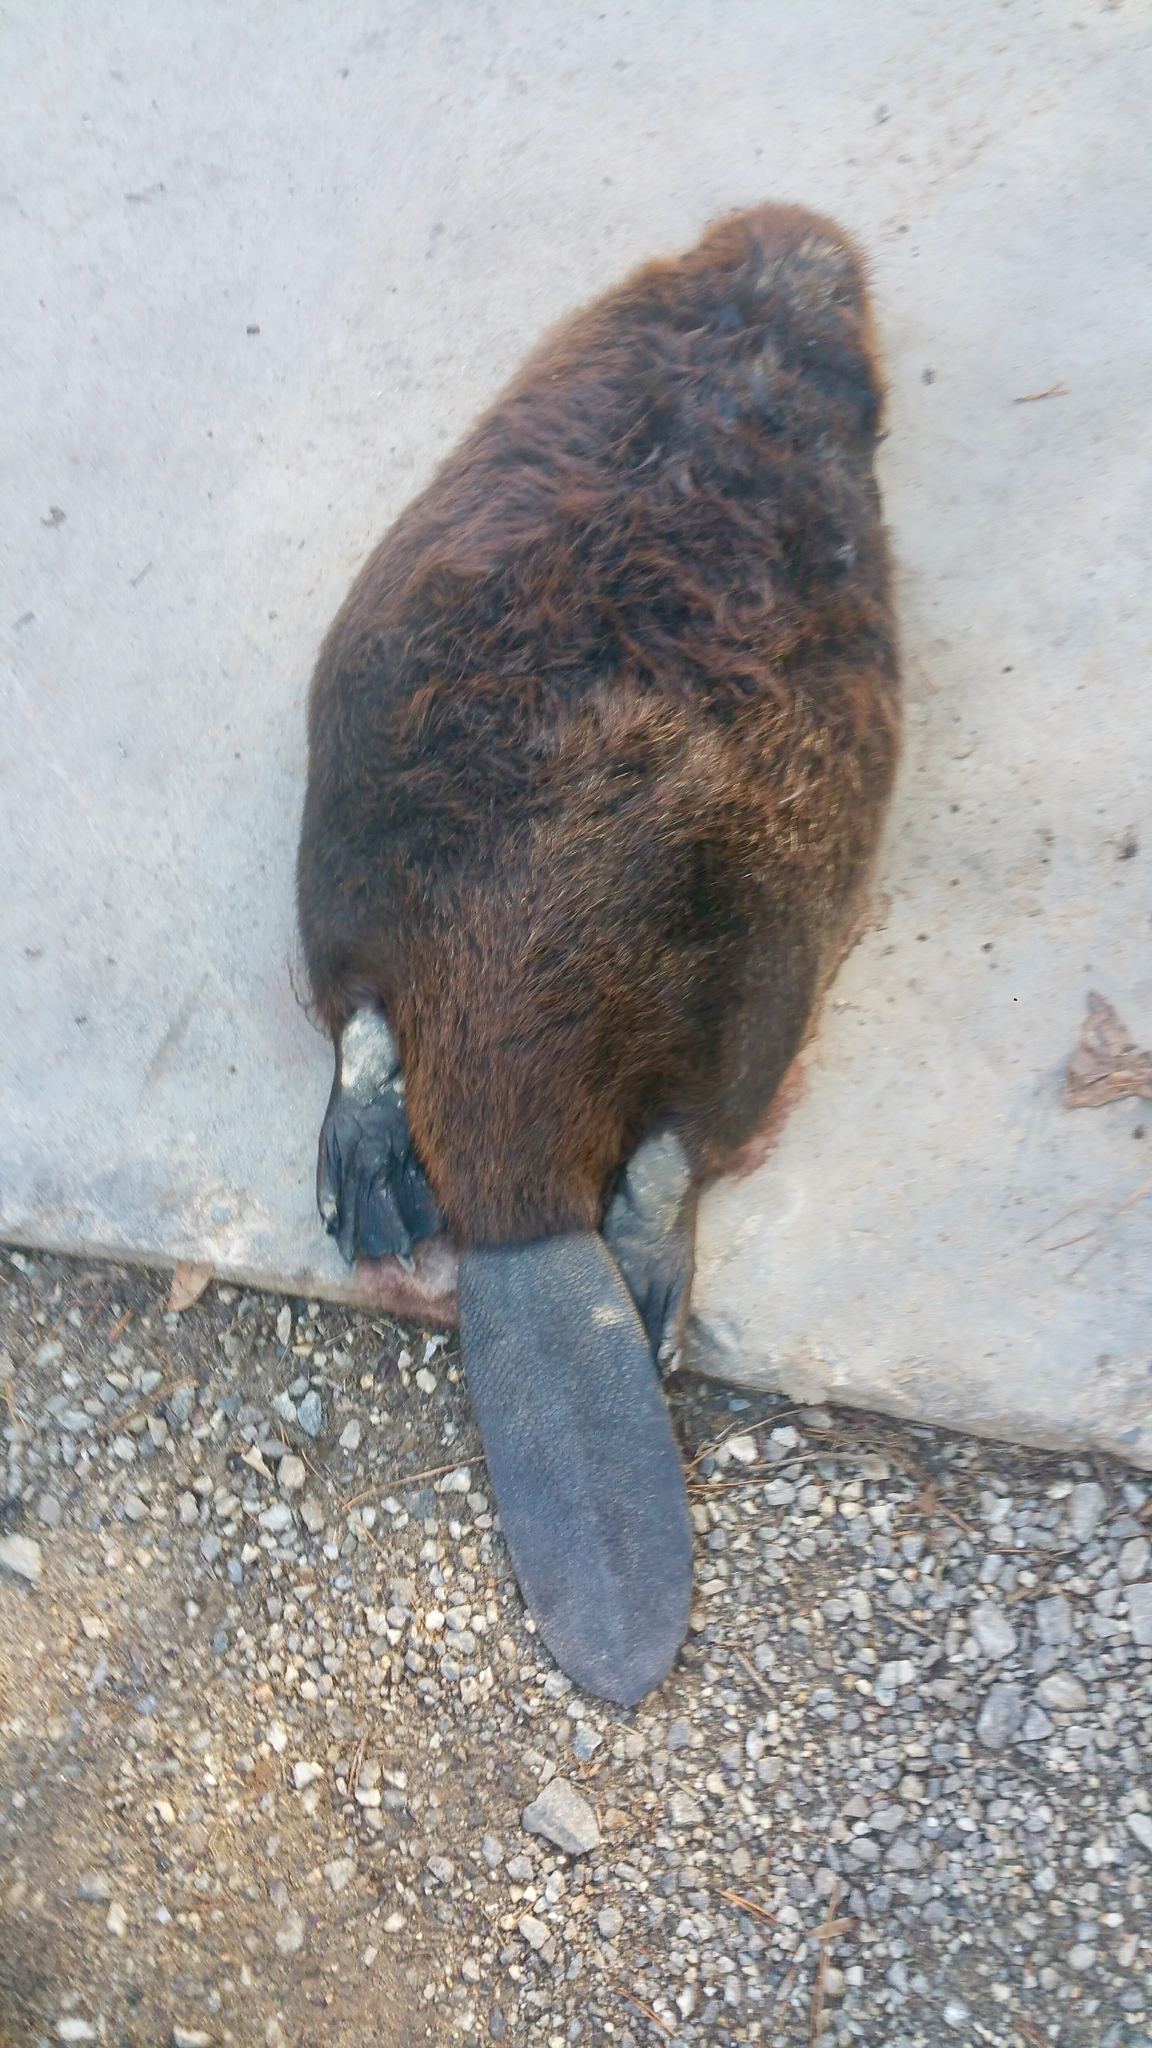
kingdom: Animalia
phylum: Chordata
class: Mammalia
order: Rodentia
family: Castoridae
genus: Castor
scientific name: Castor canadensis
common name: American beaver
